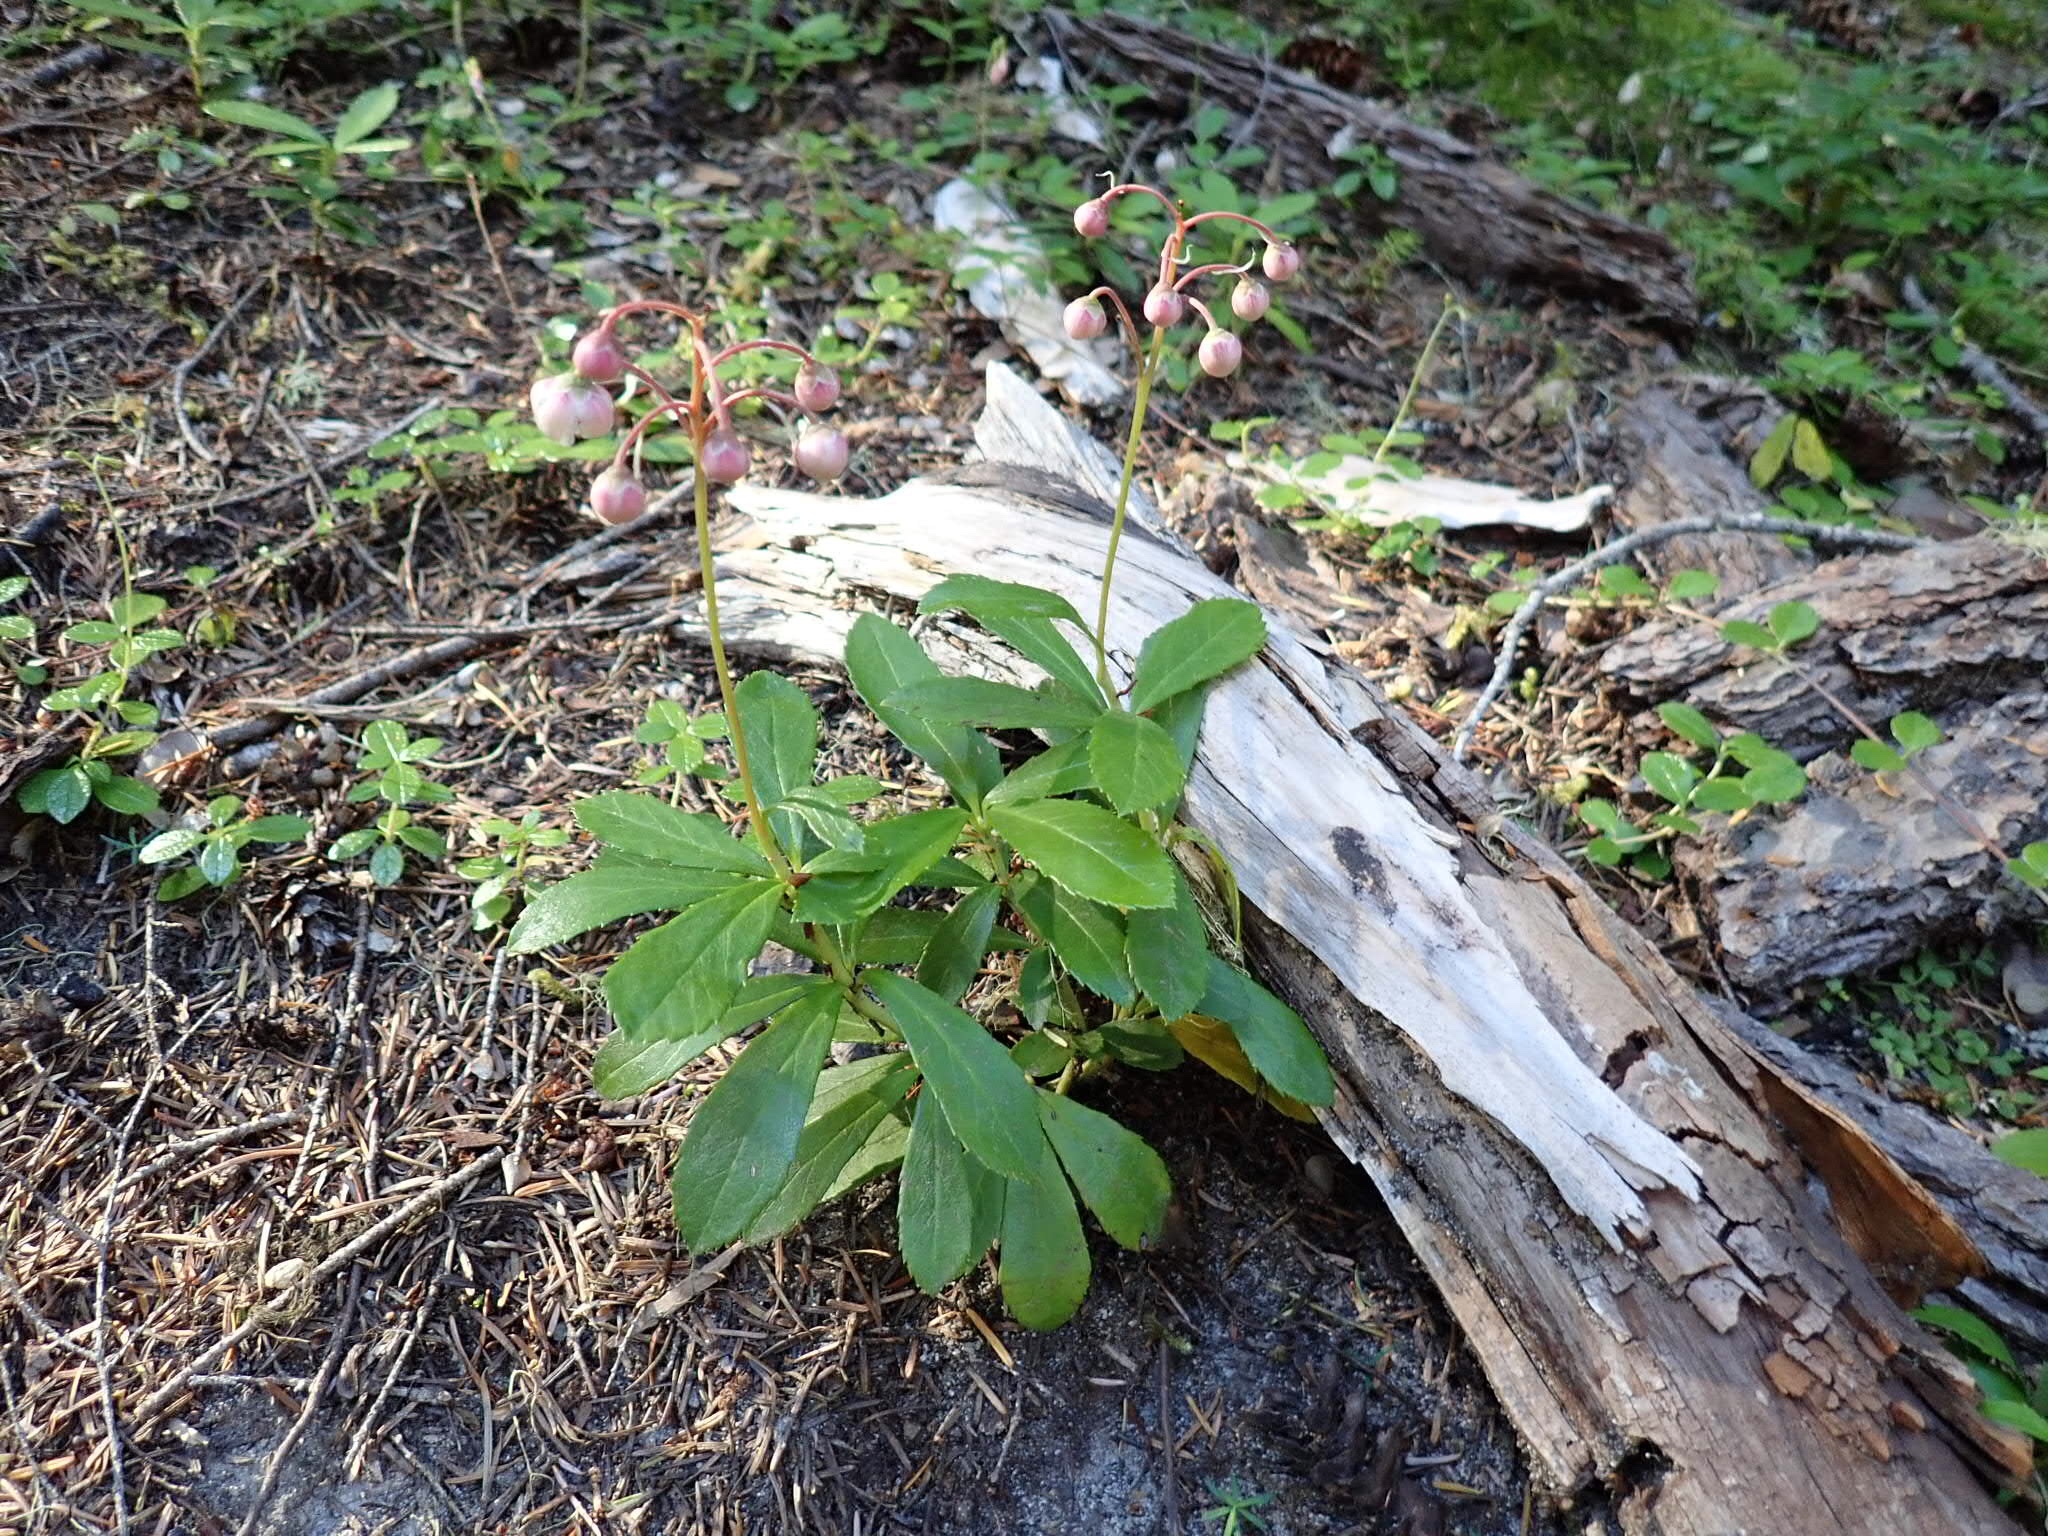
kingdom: Plantae
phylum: Tracheophyta
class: Magnoliopsida
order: Ericales
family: Ericaceae
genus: Chimaphila
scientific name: Chimaphila umbellata
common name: Pipsissewa
